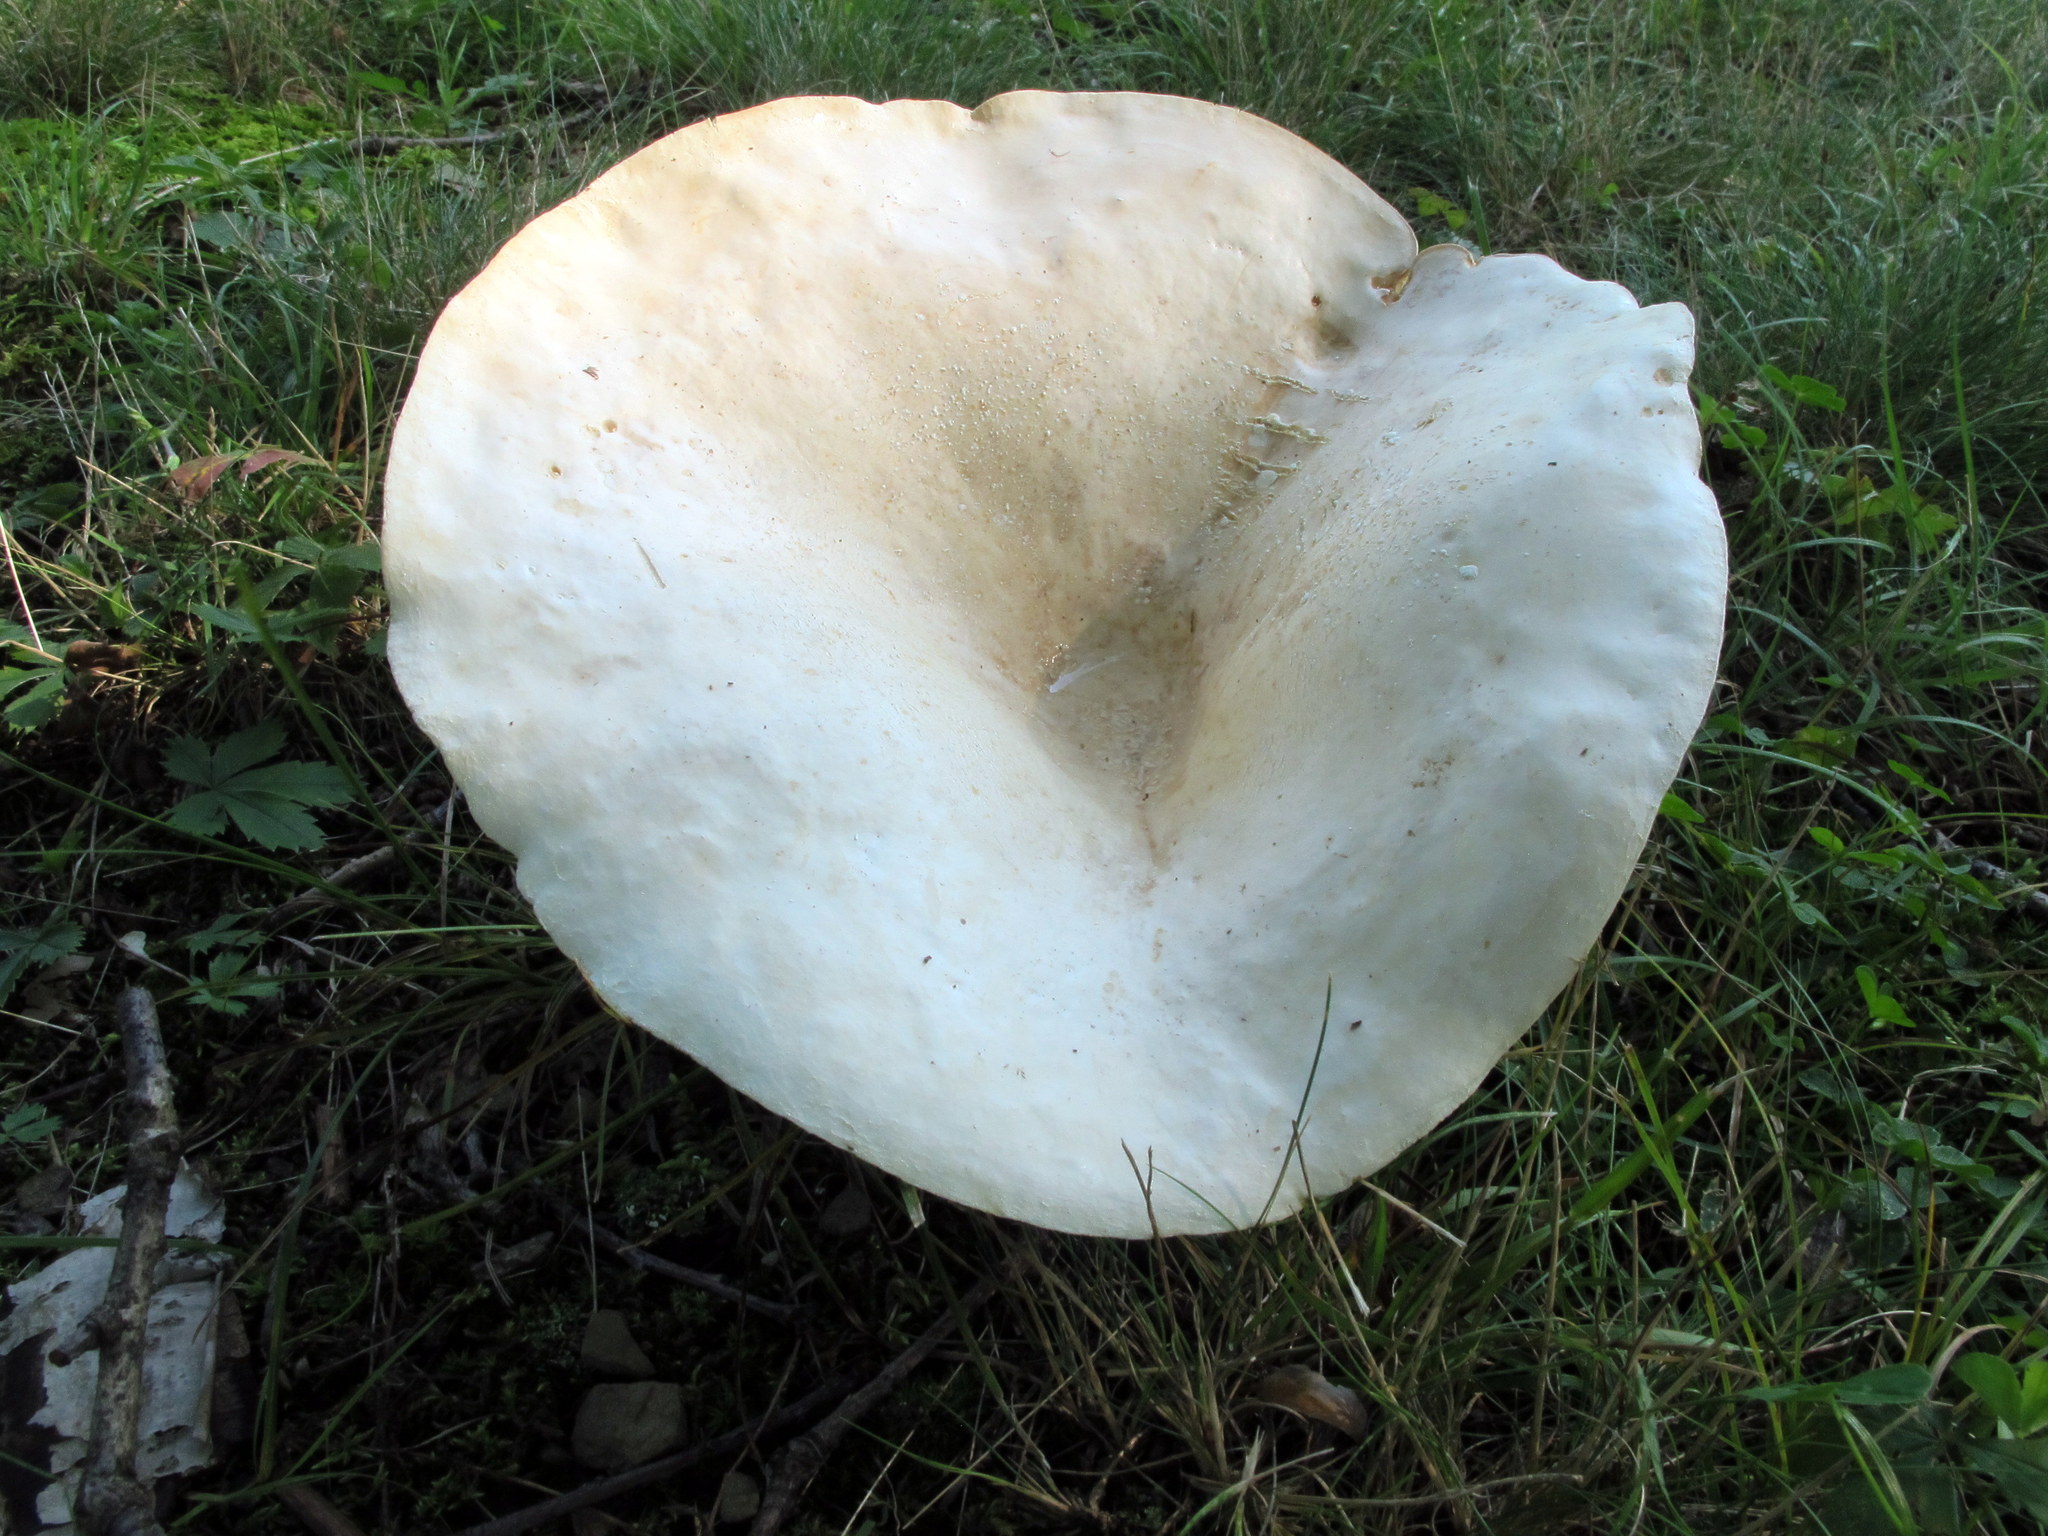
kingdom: Fungi
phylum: Basidiomycota
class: Agaricomycetes
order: Russulales
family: Russulaceae
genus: Lactifluus
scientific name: Lactifluus piperatus
